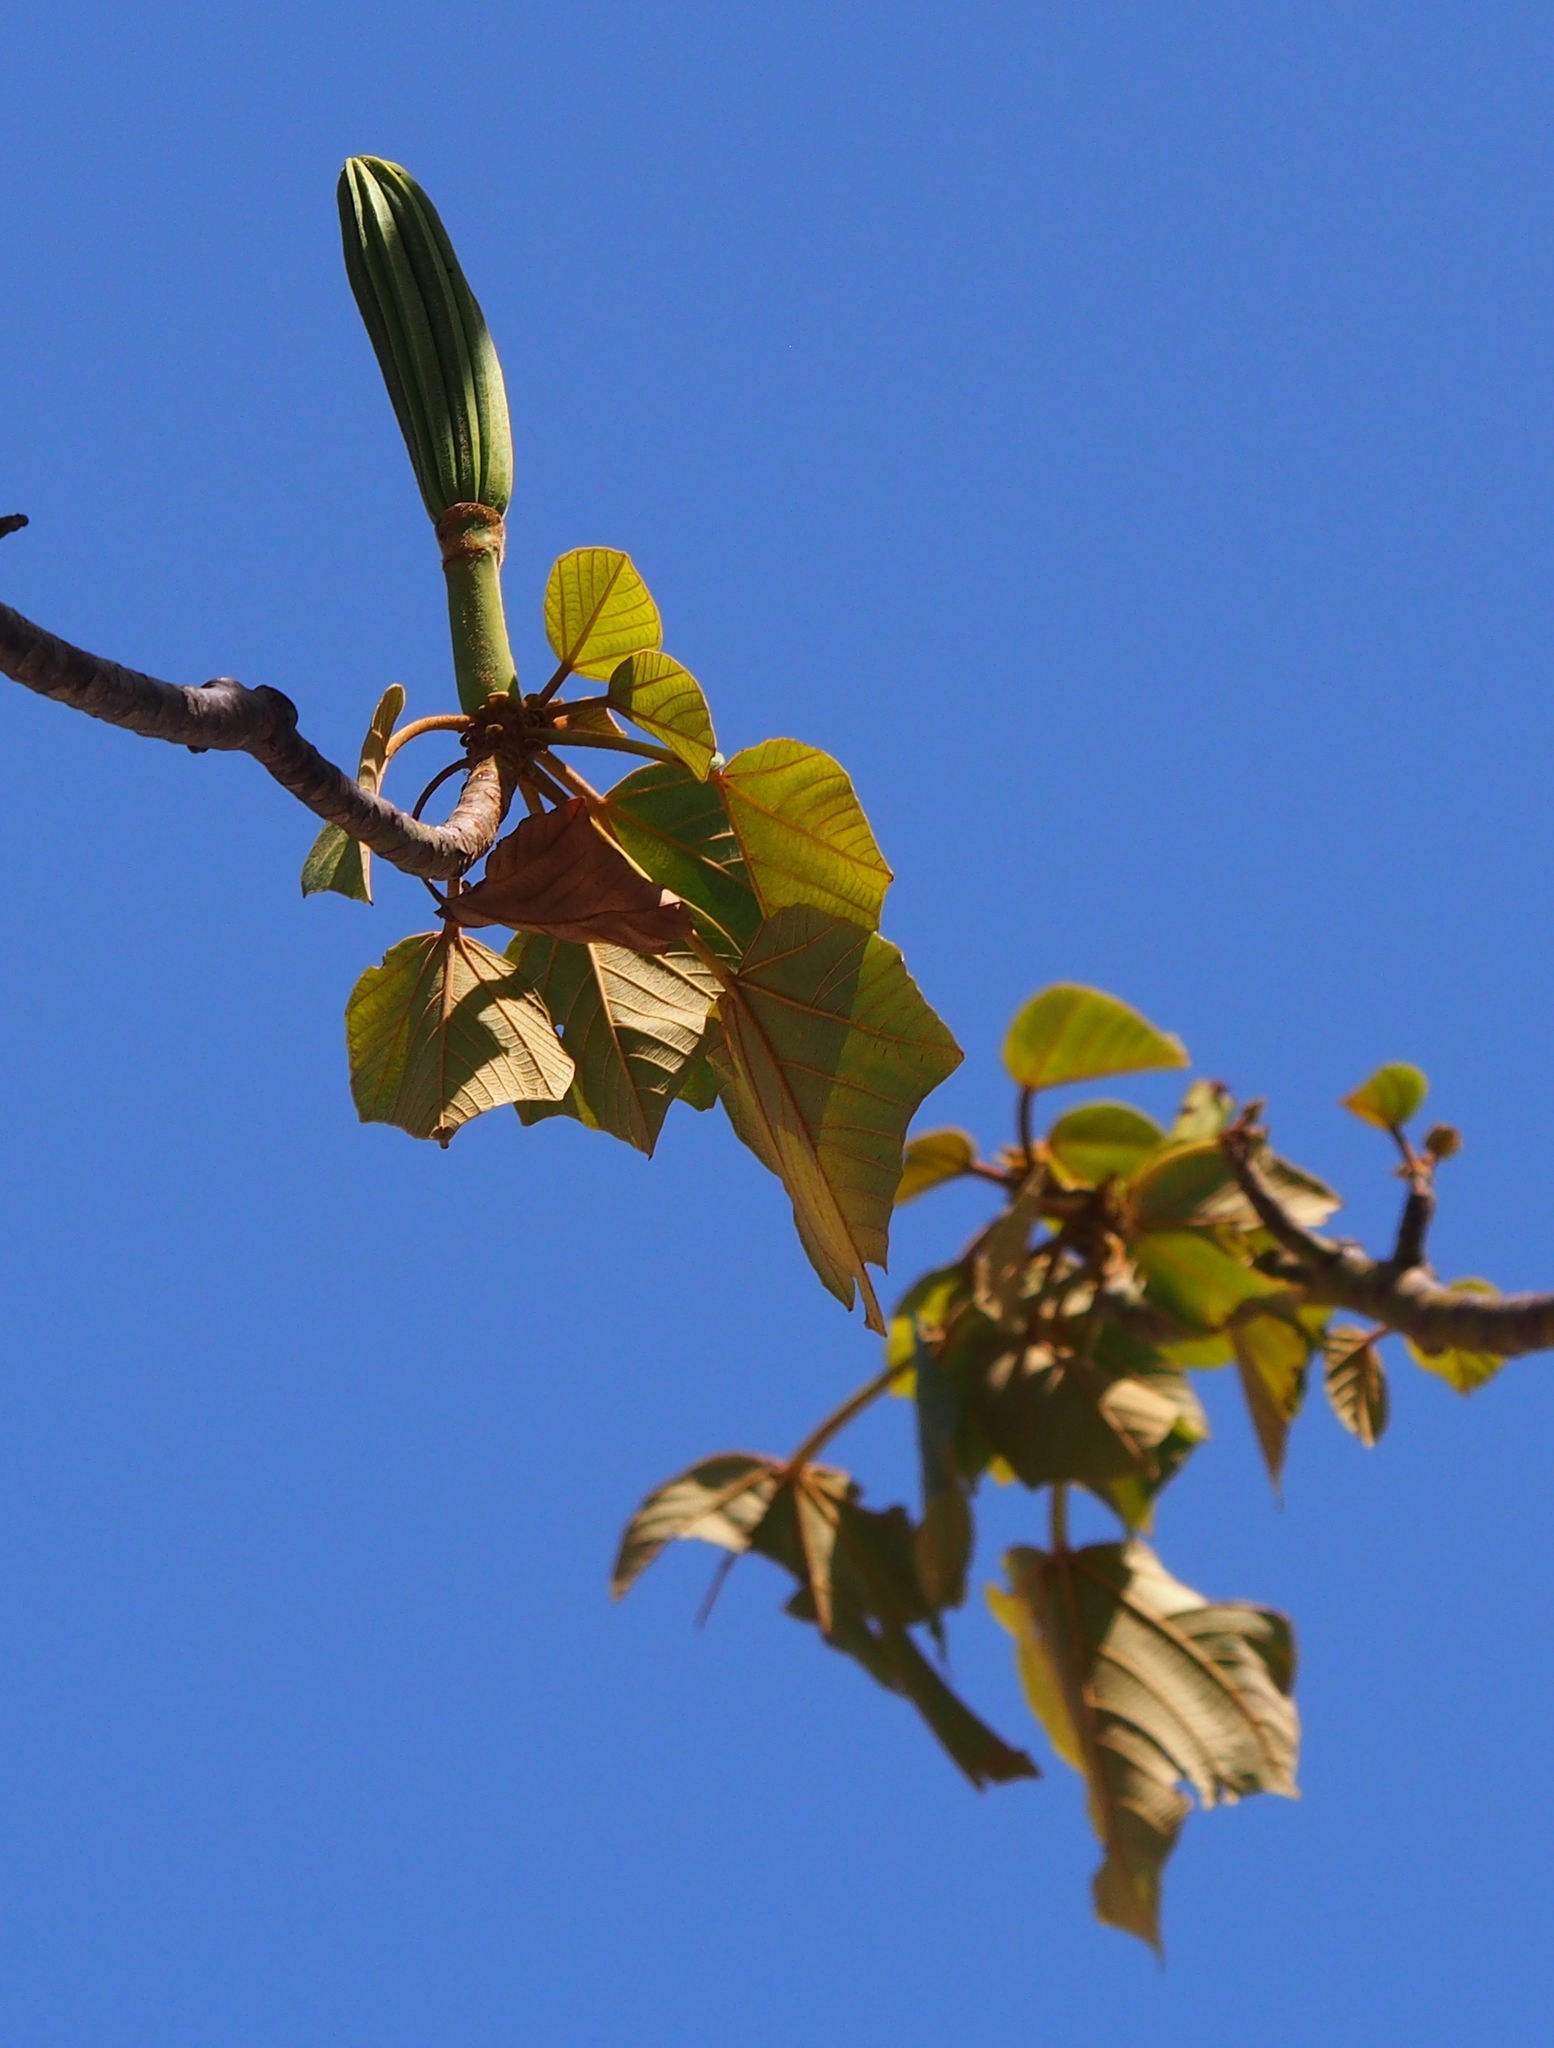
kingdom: Plantae
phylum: Tracheophyta
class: Magnoliopsida
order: Malvales
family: Malvaceae
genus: Ochroma
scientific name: Ochroma pyramidale
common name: Balsa
